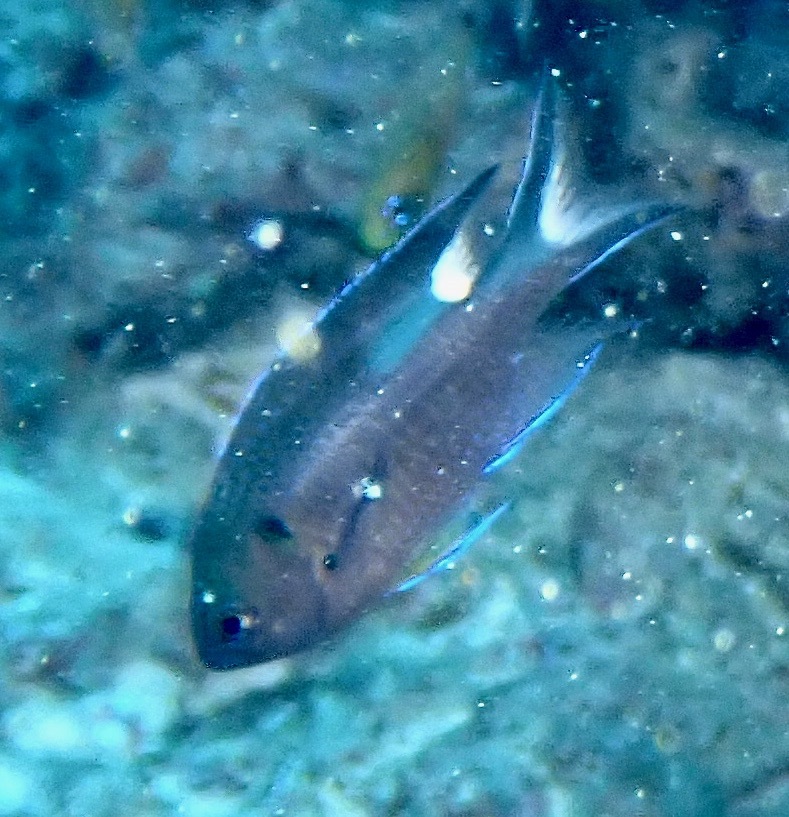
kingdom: Animalia
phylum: Chordata
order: Perciformes
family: Pomacentridae
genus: Neopomacentrus
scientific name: Neopomacentrus cyanomos
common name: Regal demoiselle
